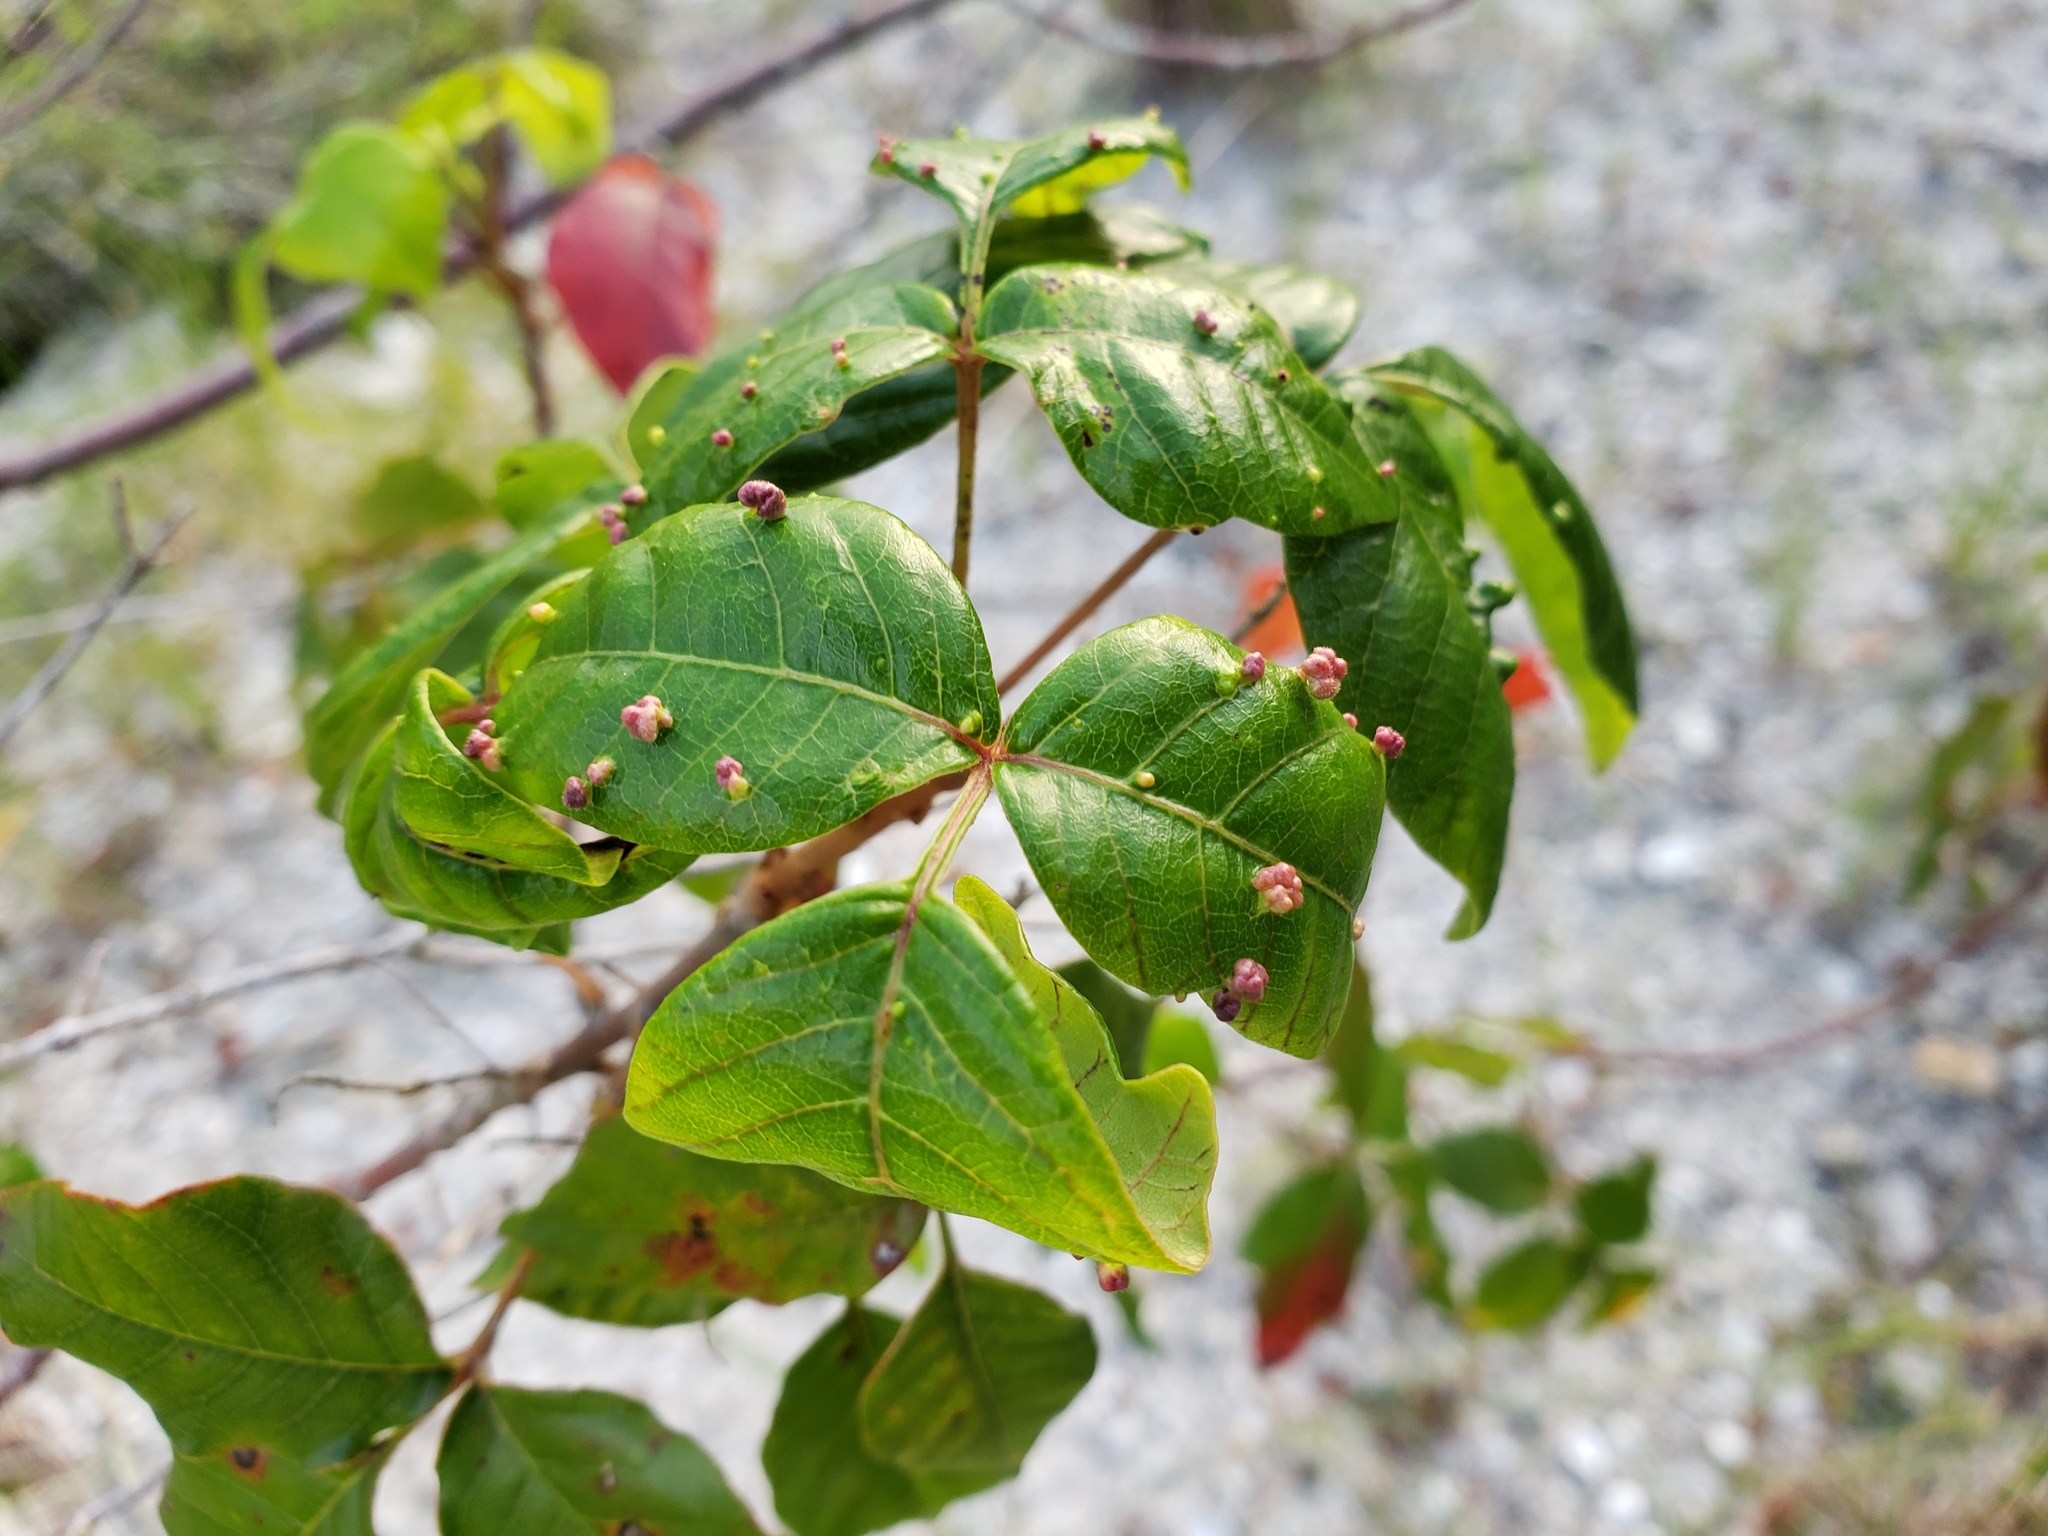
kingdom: Animalia
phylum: Arthropoda
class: Arachnida
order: Trombidiformes
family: Eriophyidae
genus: Aculops
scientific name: Aculops
